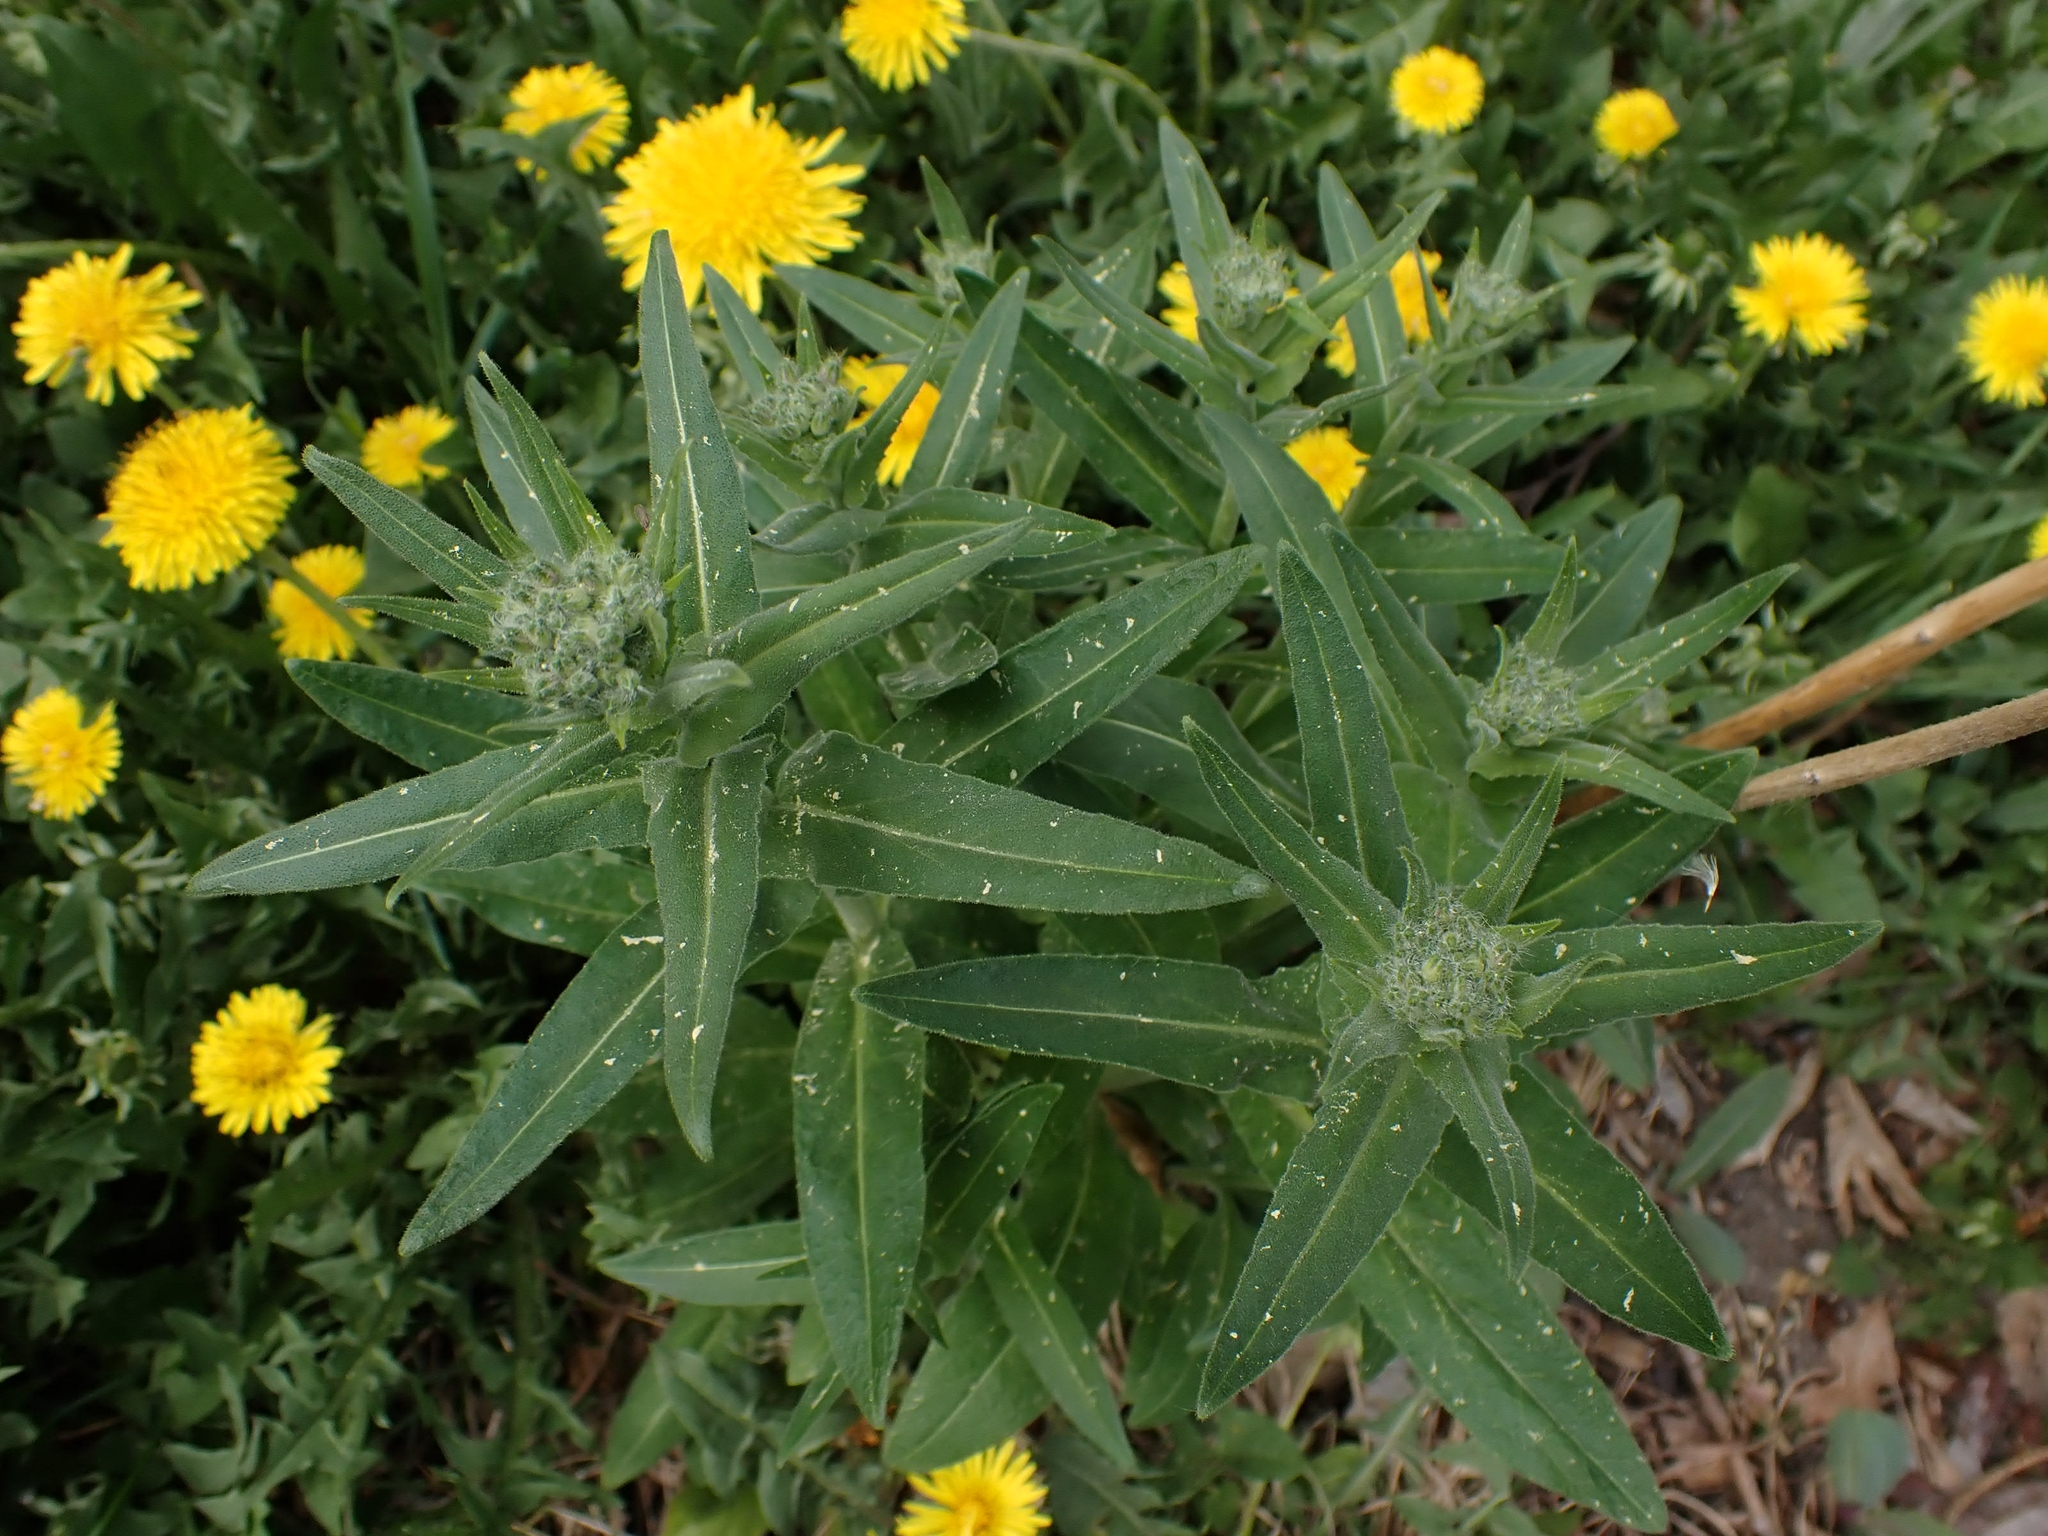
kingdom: Plantae
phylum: Tracheophyta
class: Magnoliopsida
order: Brassicales
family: Brassicaceae
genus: Hesperis
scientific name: Hesperis matronalis
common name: Dame's-violet
